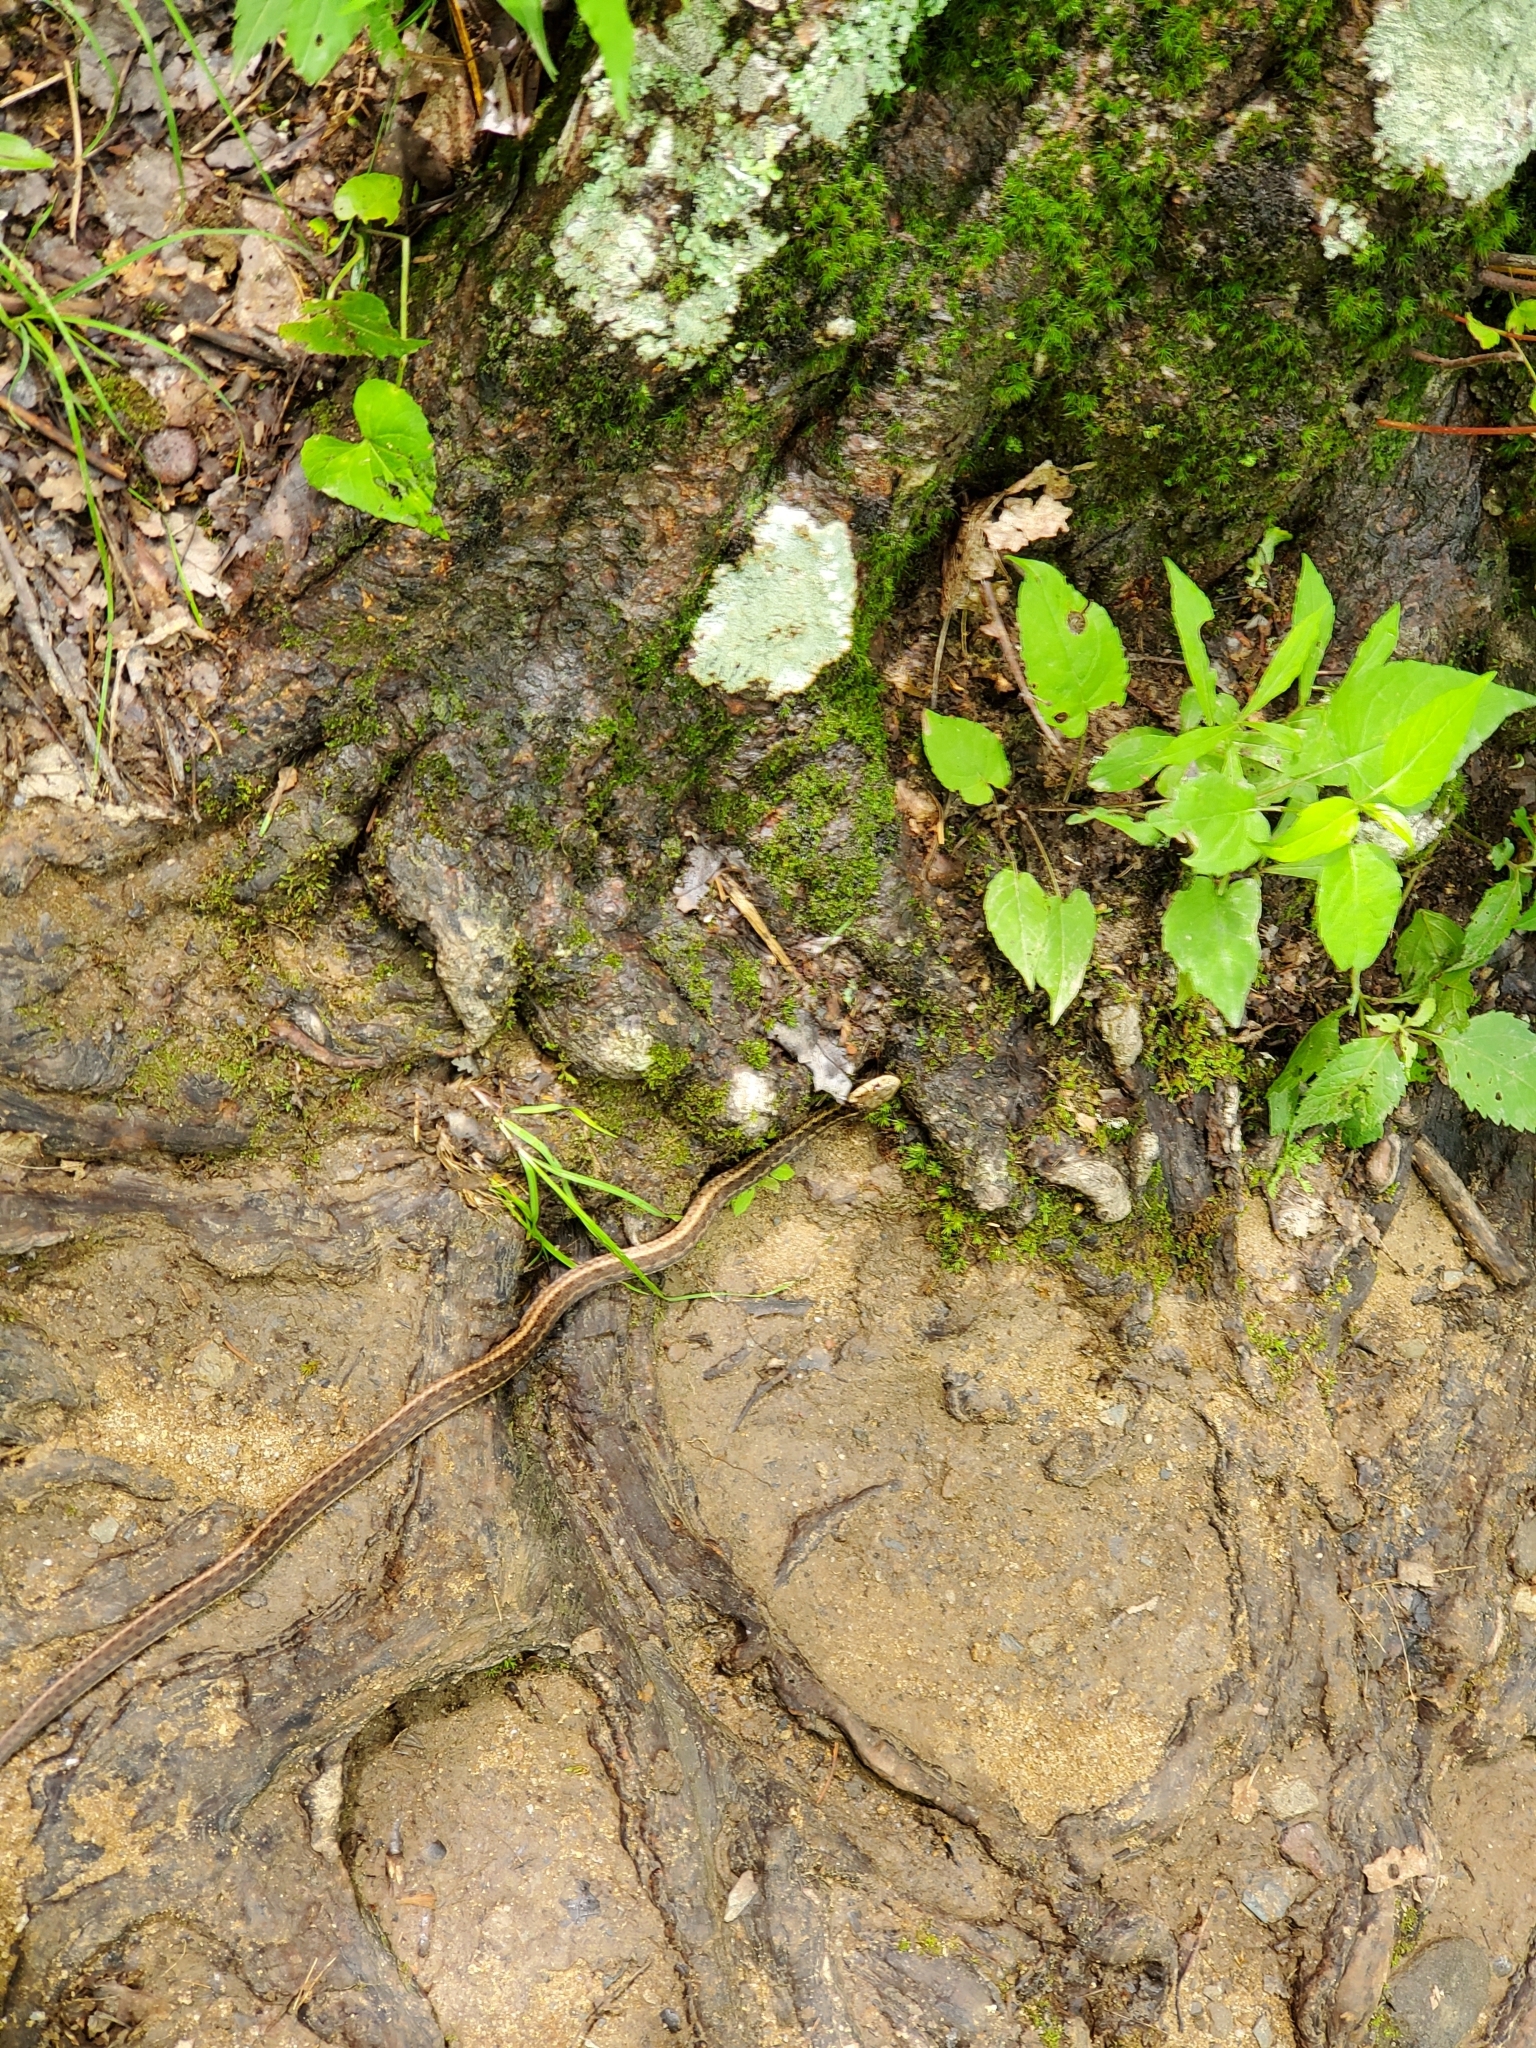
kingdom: Animalia
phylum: Chordata
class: Squamata
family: Colubridae
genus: Thamnophis
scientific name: Thamnophis sirtalis
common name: Common garter snake
